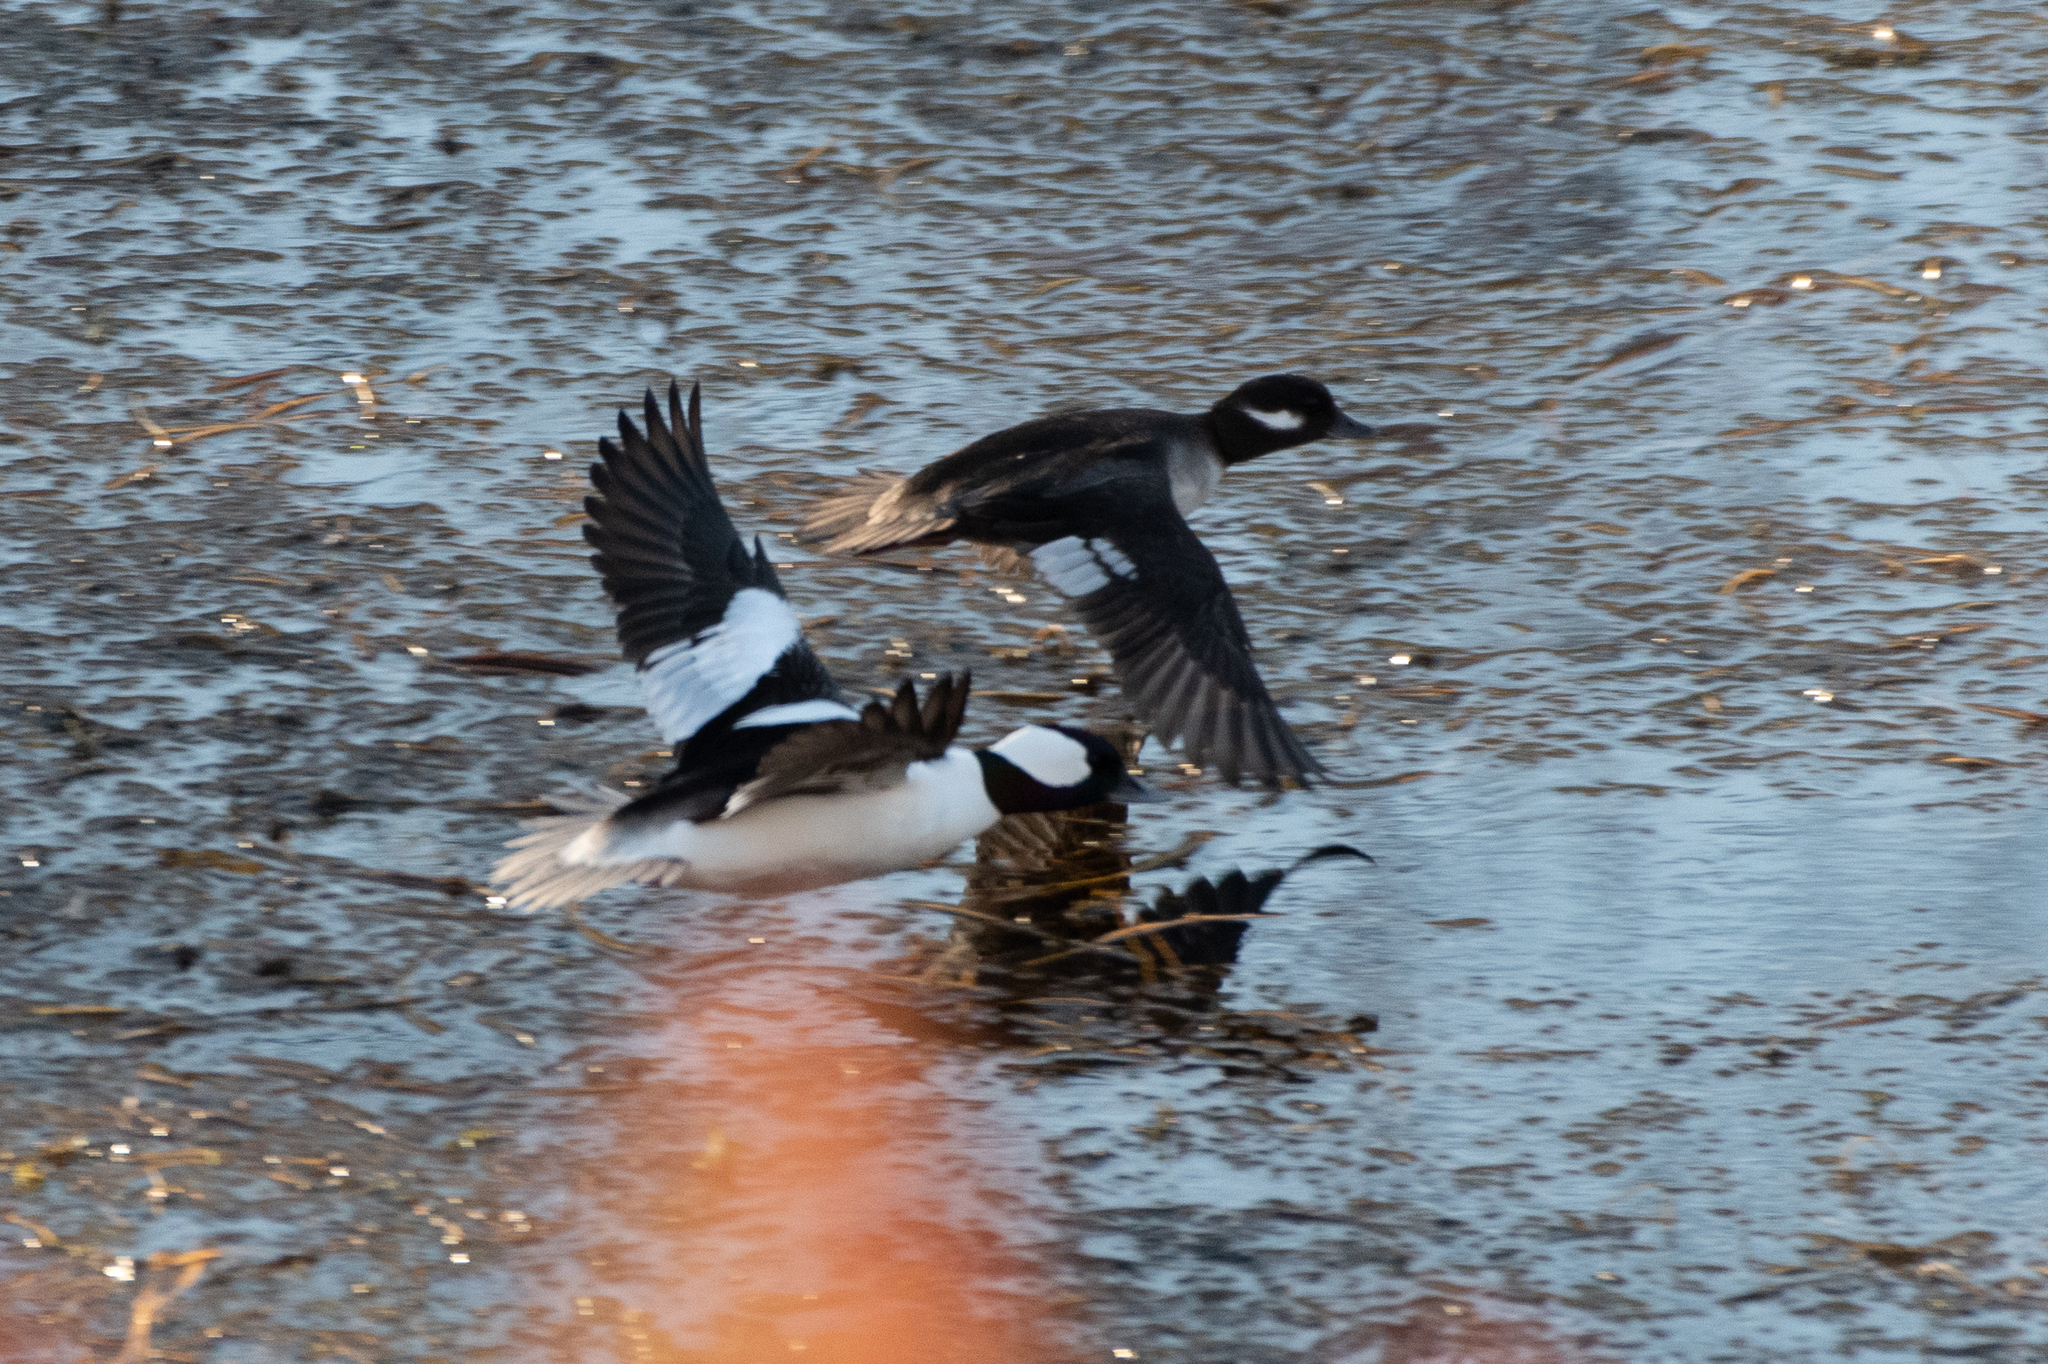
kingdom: Animalia
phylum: Chordata
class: Aves
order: Anseriformes
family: Anatidae
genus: Bucephala
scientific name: Bucephala albeola
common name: Bufflehead
